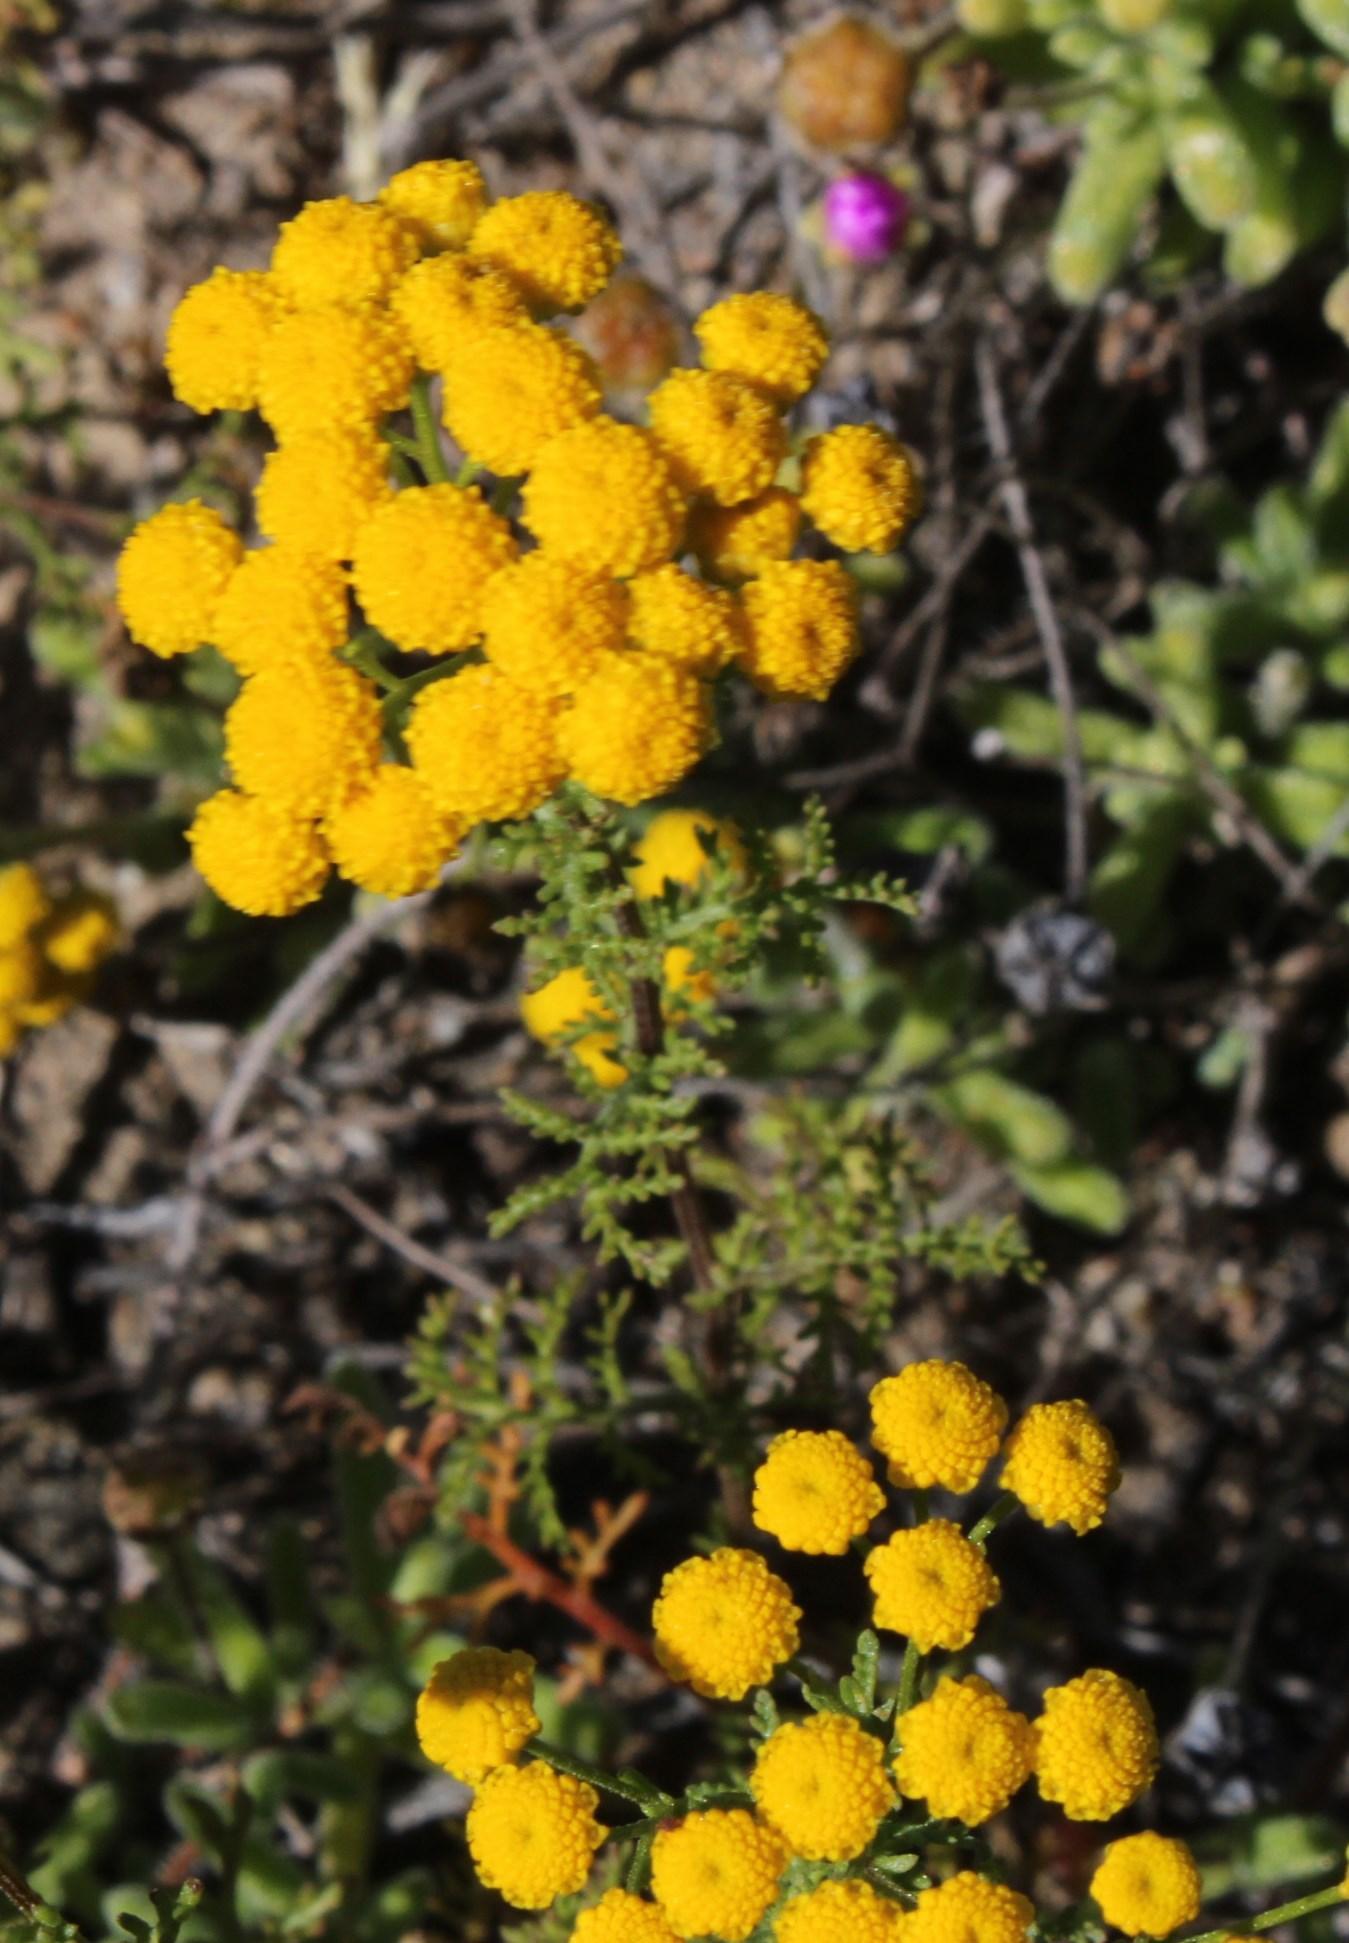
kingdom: Plantae
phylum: Tracheophyta
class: Magnoliopsida
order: Asterales
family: Asteraceae
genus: Oncosiphon
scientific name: Oncosiphon suffruticosus
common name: Shrubby mayweed
